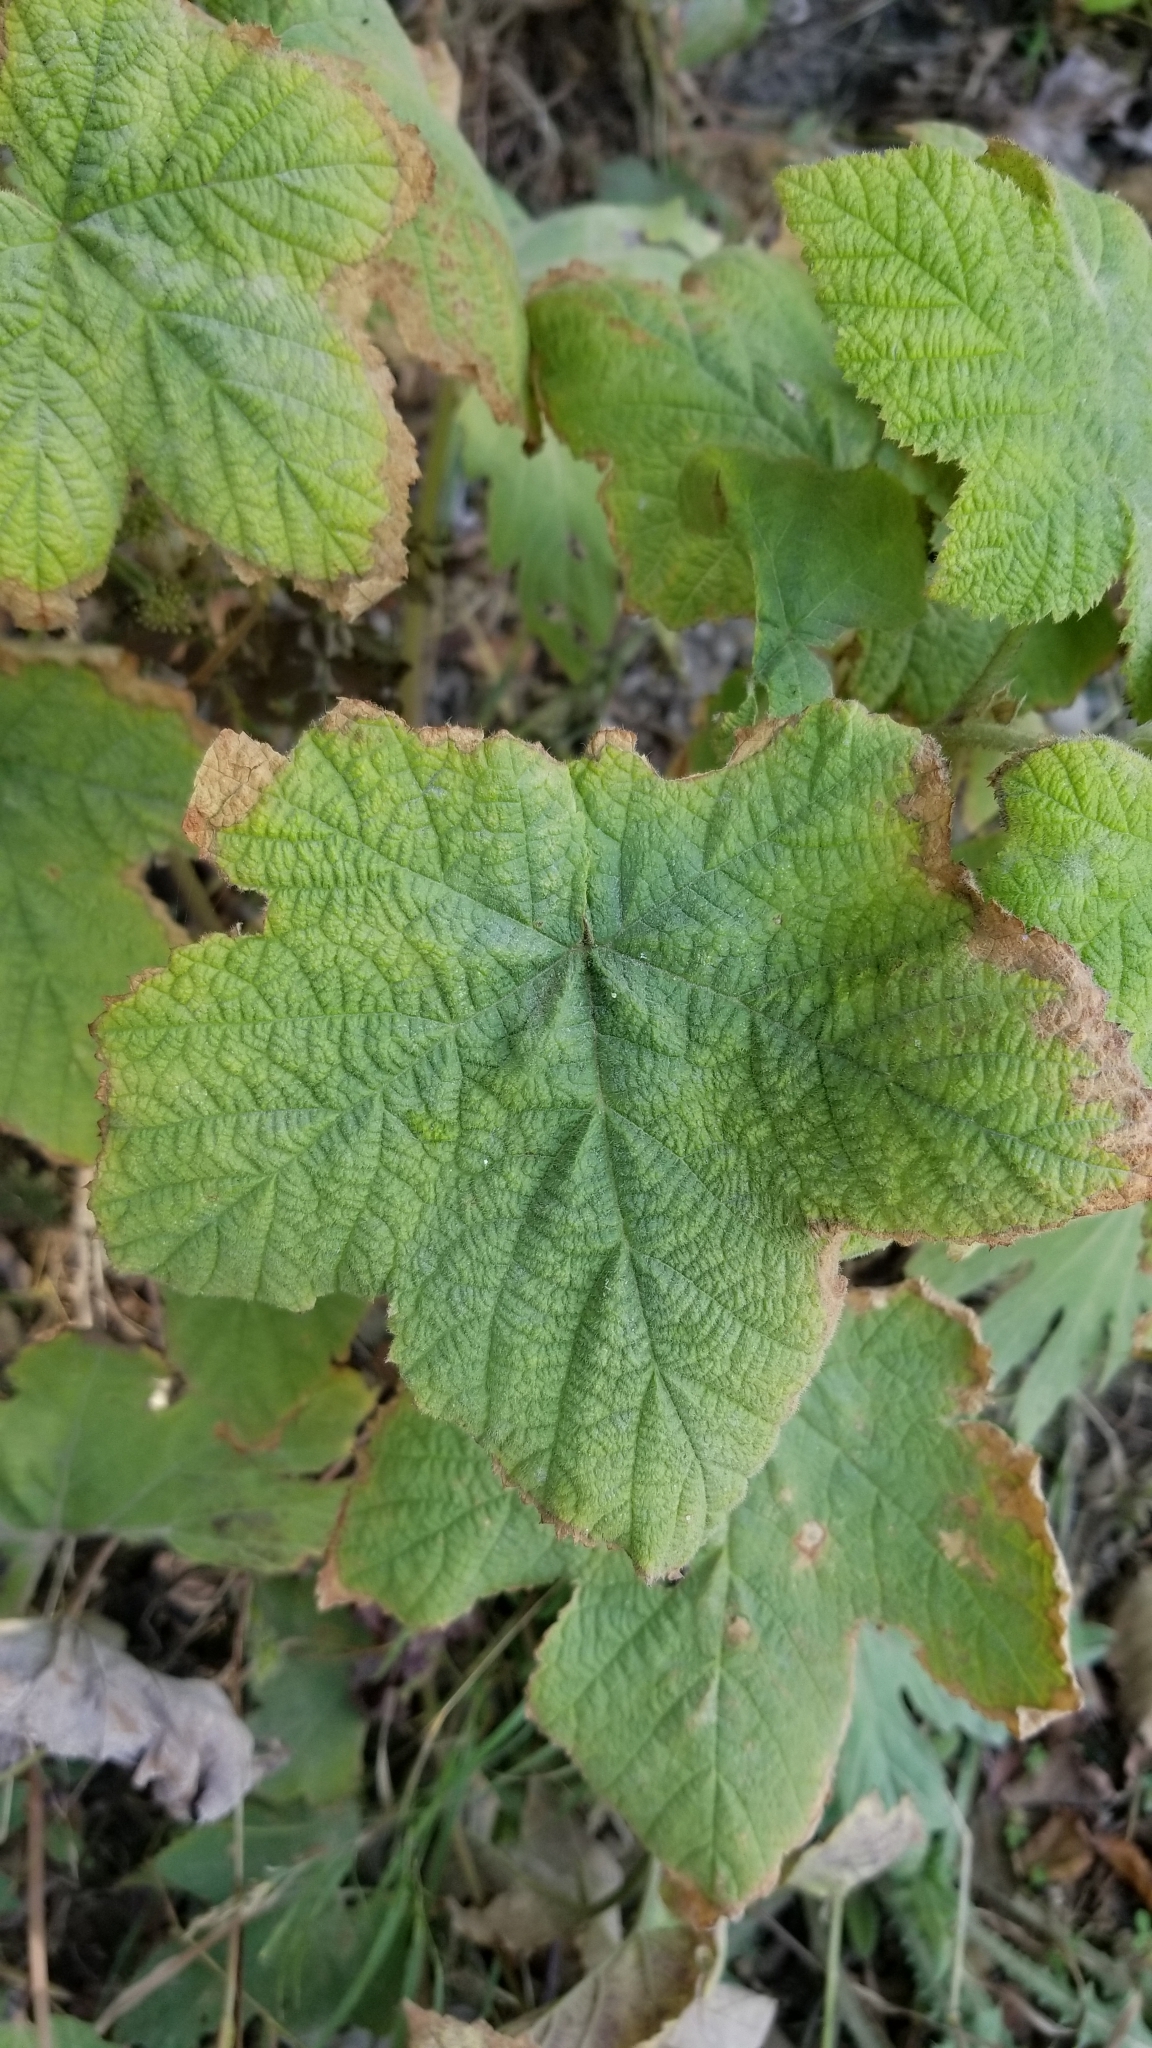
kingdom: Plantae
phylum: Tracheophyta
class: Magnoliopsida
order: Rosales
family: Rosaceae
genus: Rubus
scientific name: Rubus parviflorus
